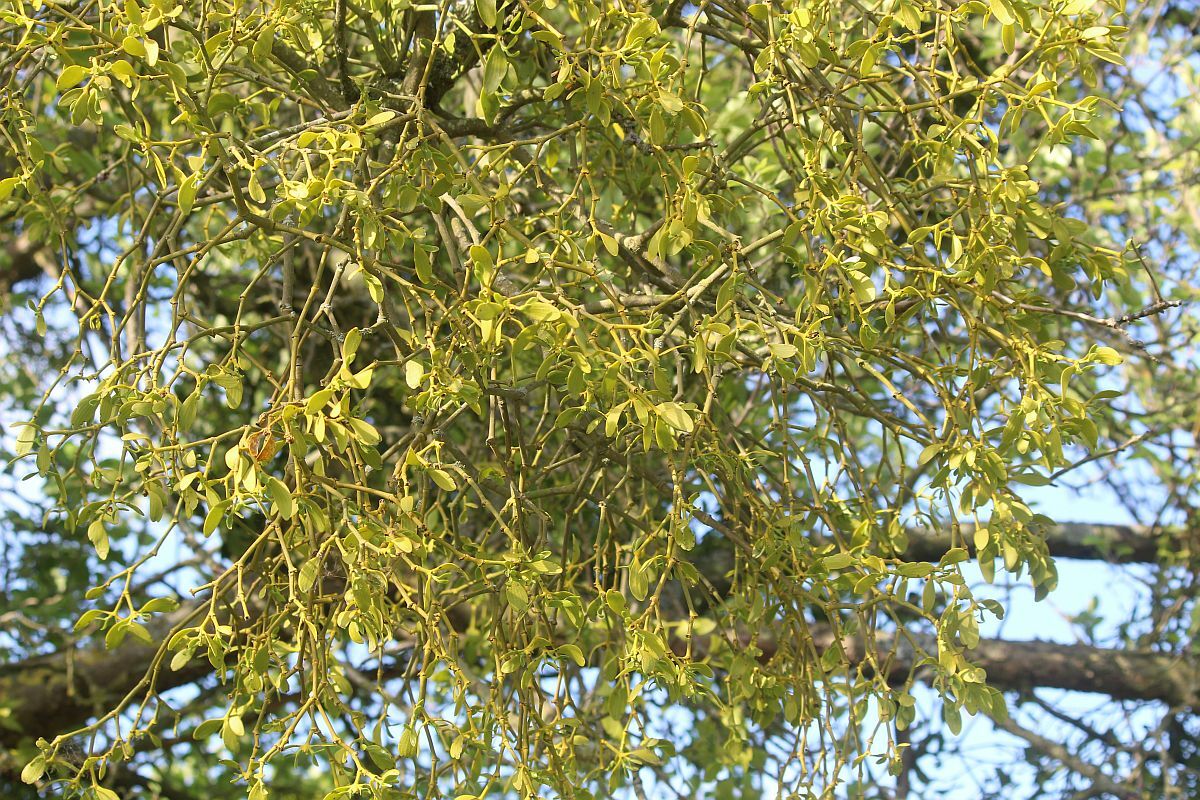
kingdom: Plantae
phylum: Tracheophyta
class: Magnoliopsida
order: Santalales
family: Viscaceae
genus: Viscum
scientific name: Viscum album
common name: Mistletoe
